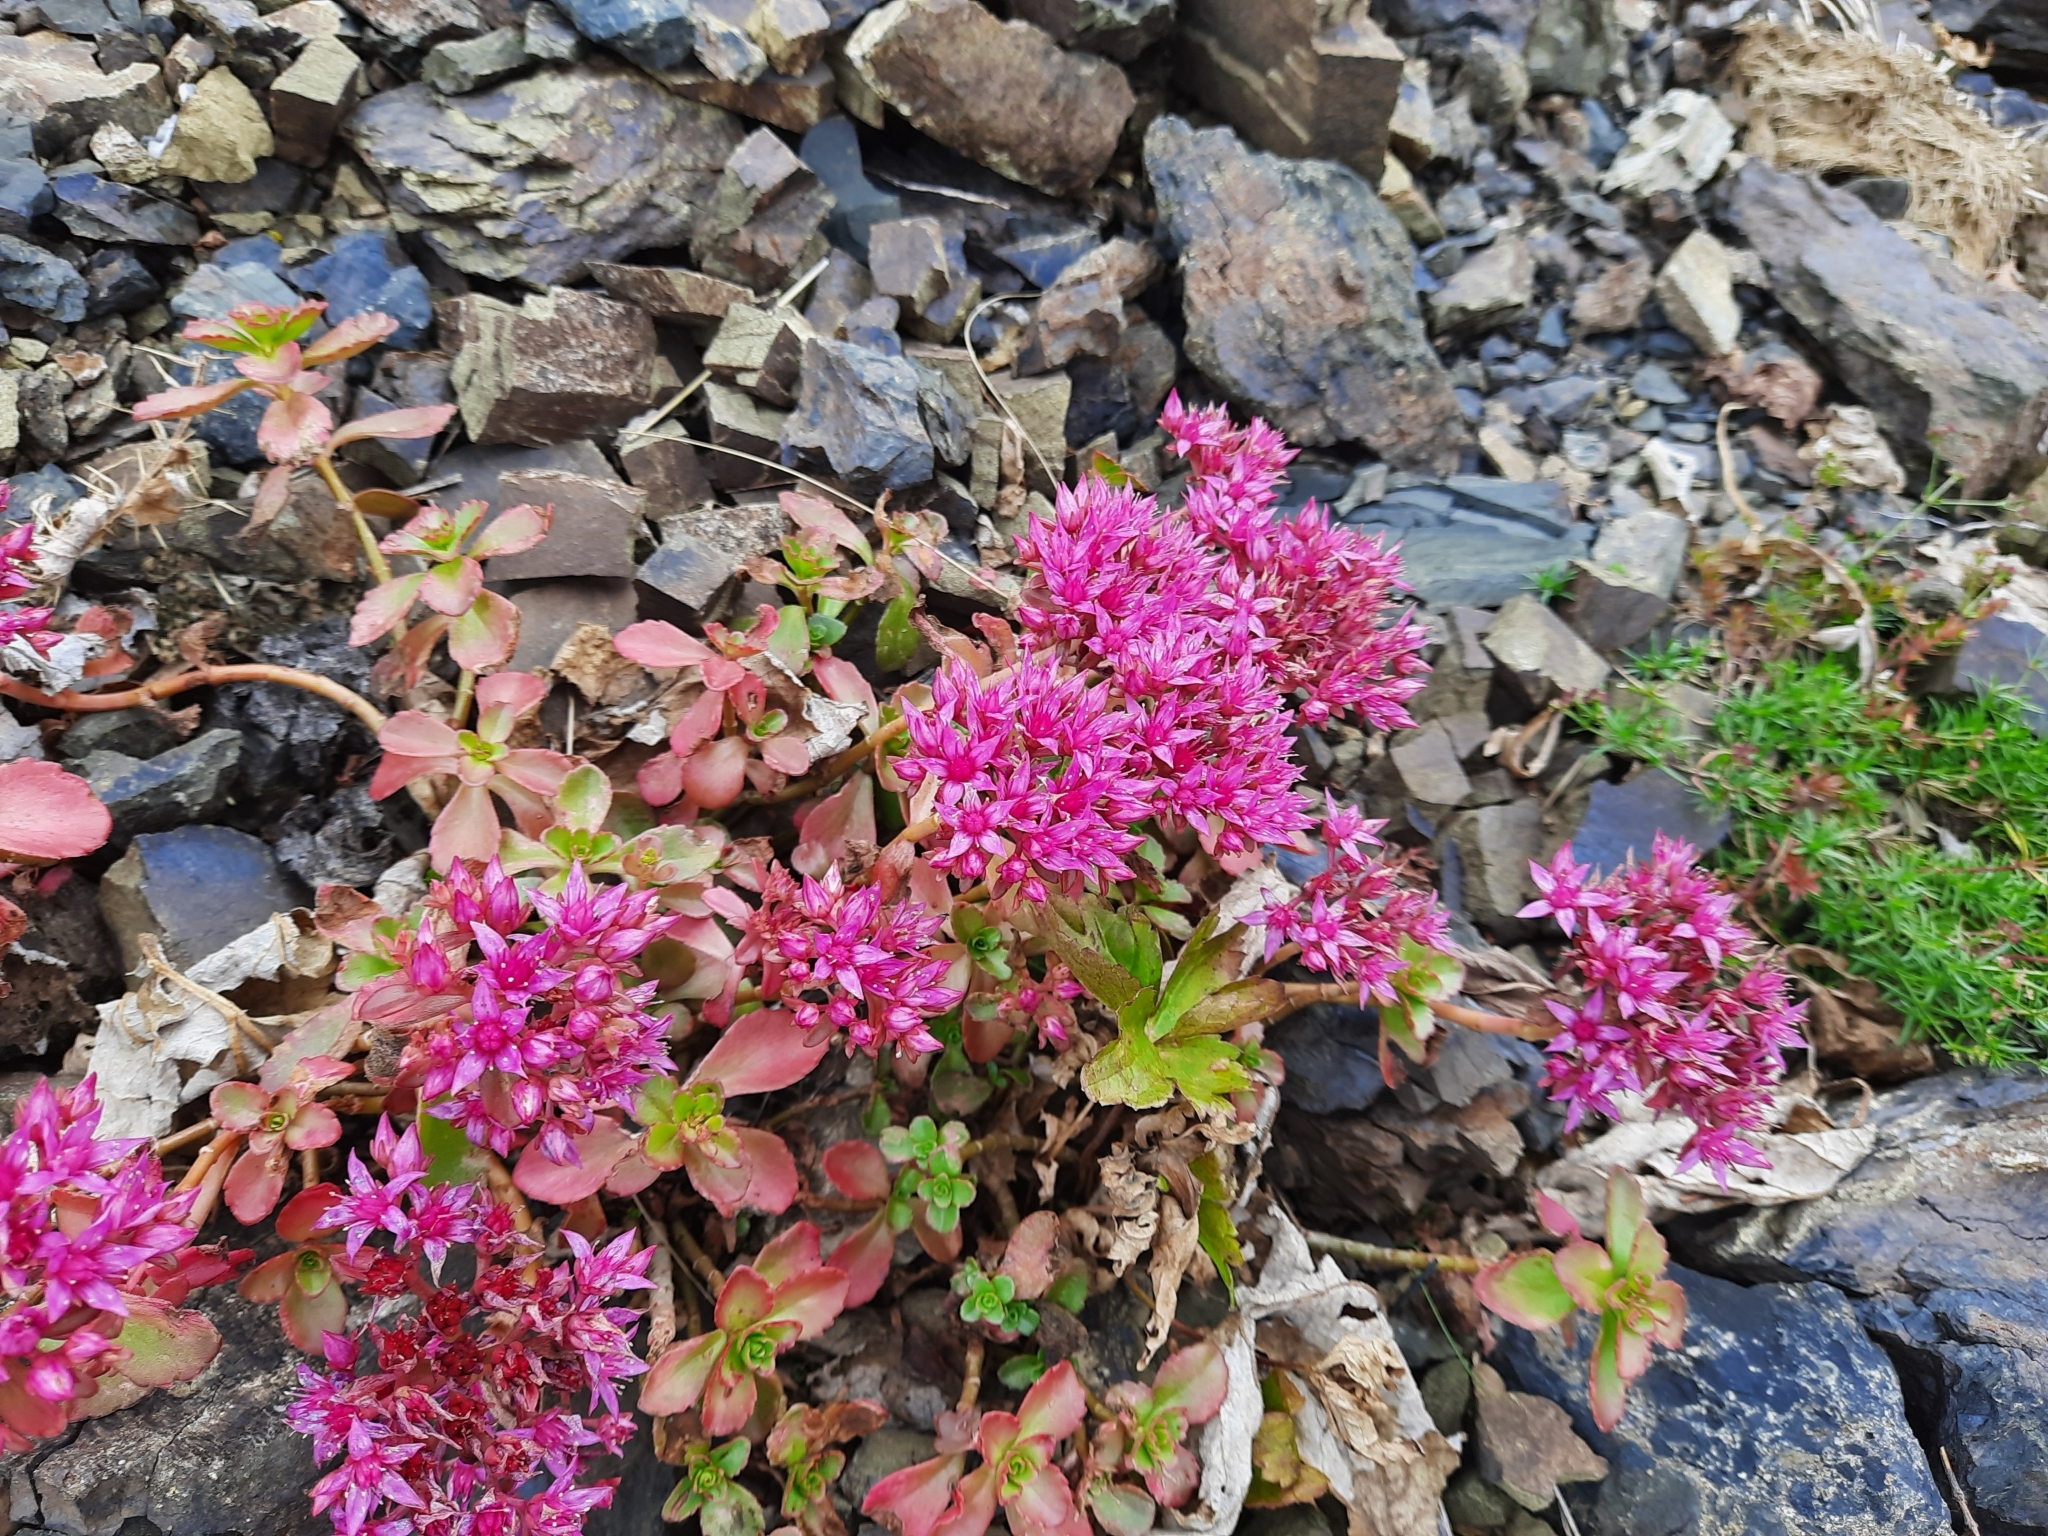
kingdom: Plantae
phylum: Tracheophyta
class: Magnoliopsida
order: Saxifragales
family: Crassulaceae
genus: Phedimus
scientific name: Phedimus spurius
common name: Caucasian stonecrop
